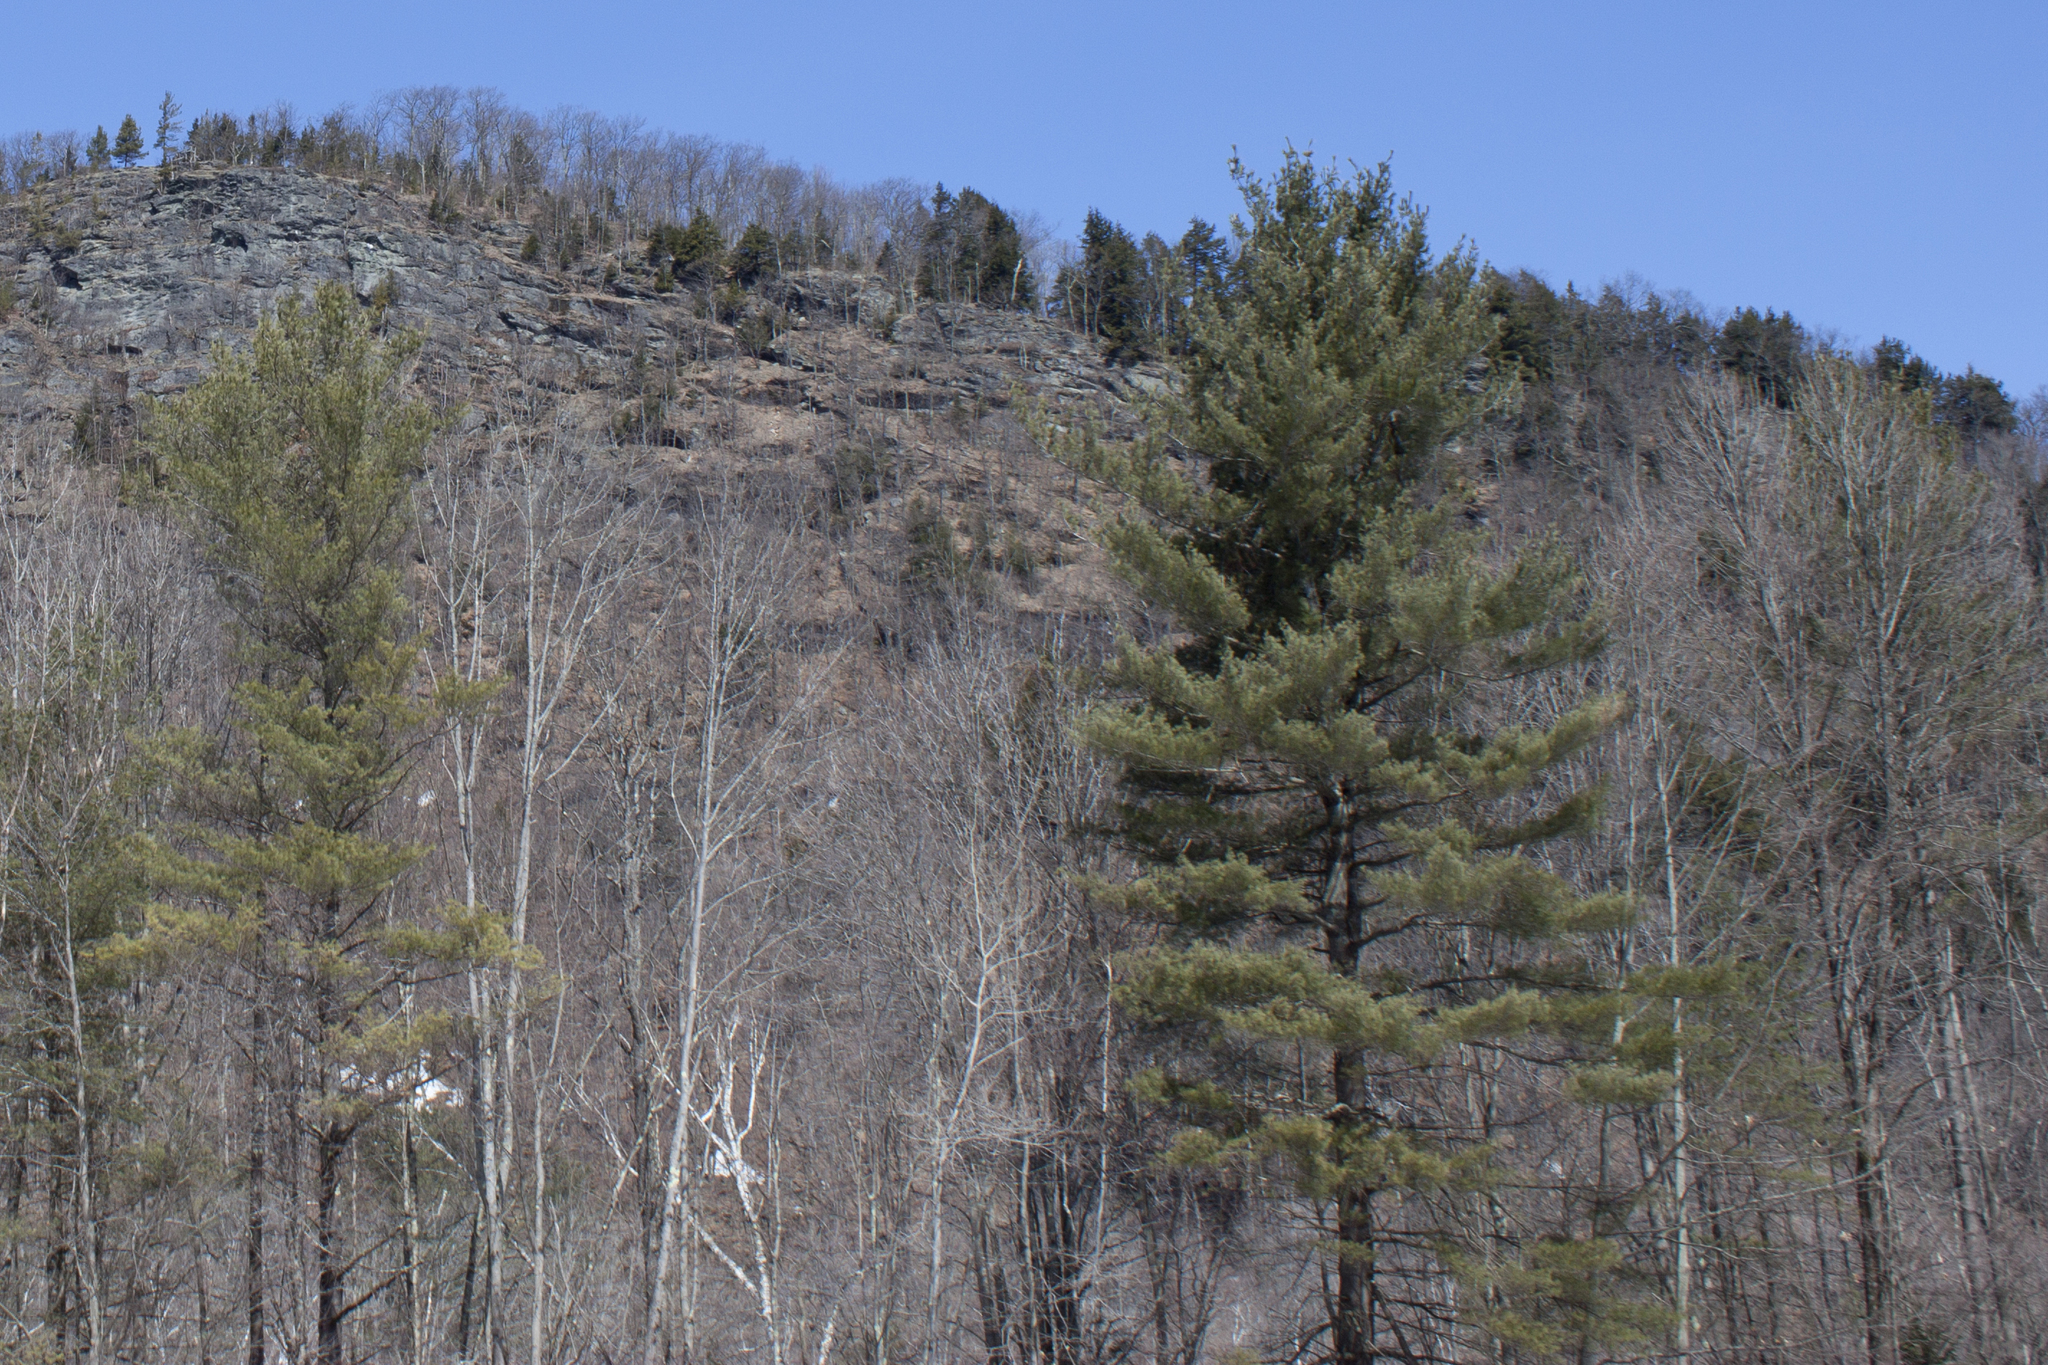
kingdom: Plantae
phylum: Tracheophyta
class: Pinopsida
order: Pinales
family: Pinaceae
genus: Pinus
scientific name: Pinus strobus
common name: Weymouth pine
